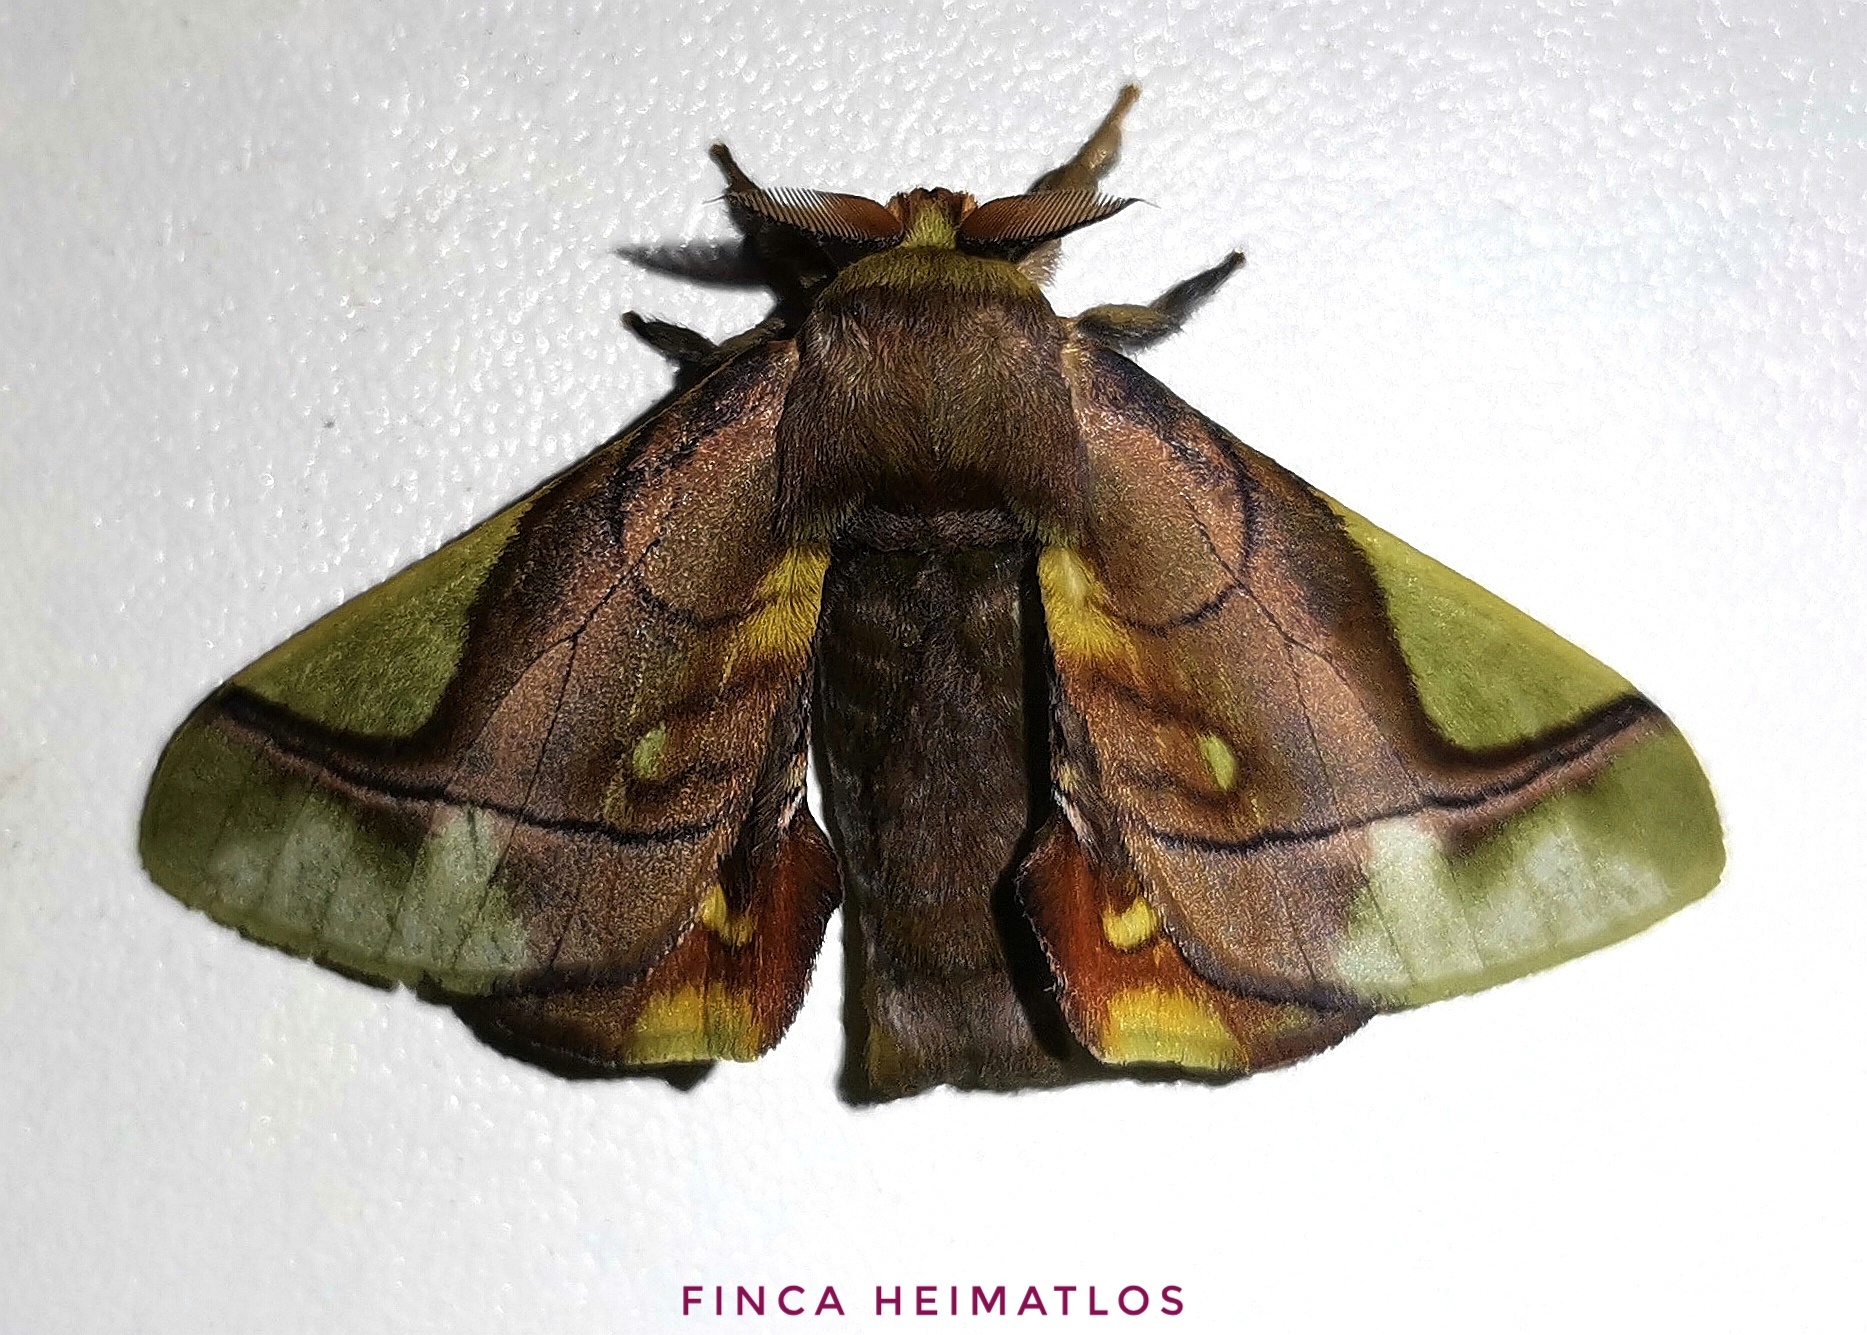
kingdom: Animalia
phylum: Arthropoda
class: Insecta
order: Lepidoptera
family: Bombycidae
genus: Epia
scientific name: Epia muscosa
